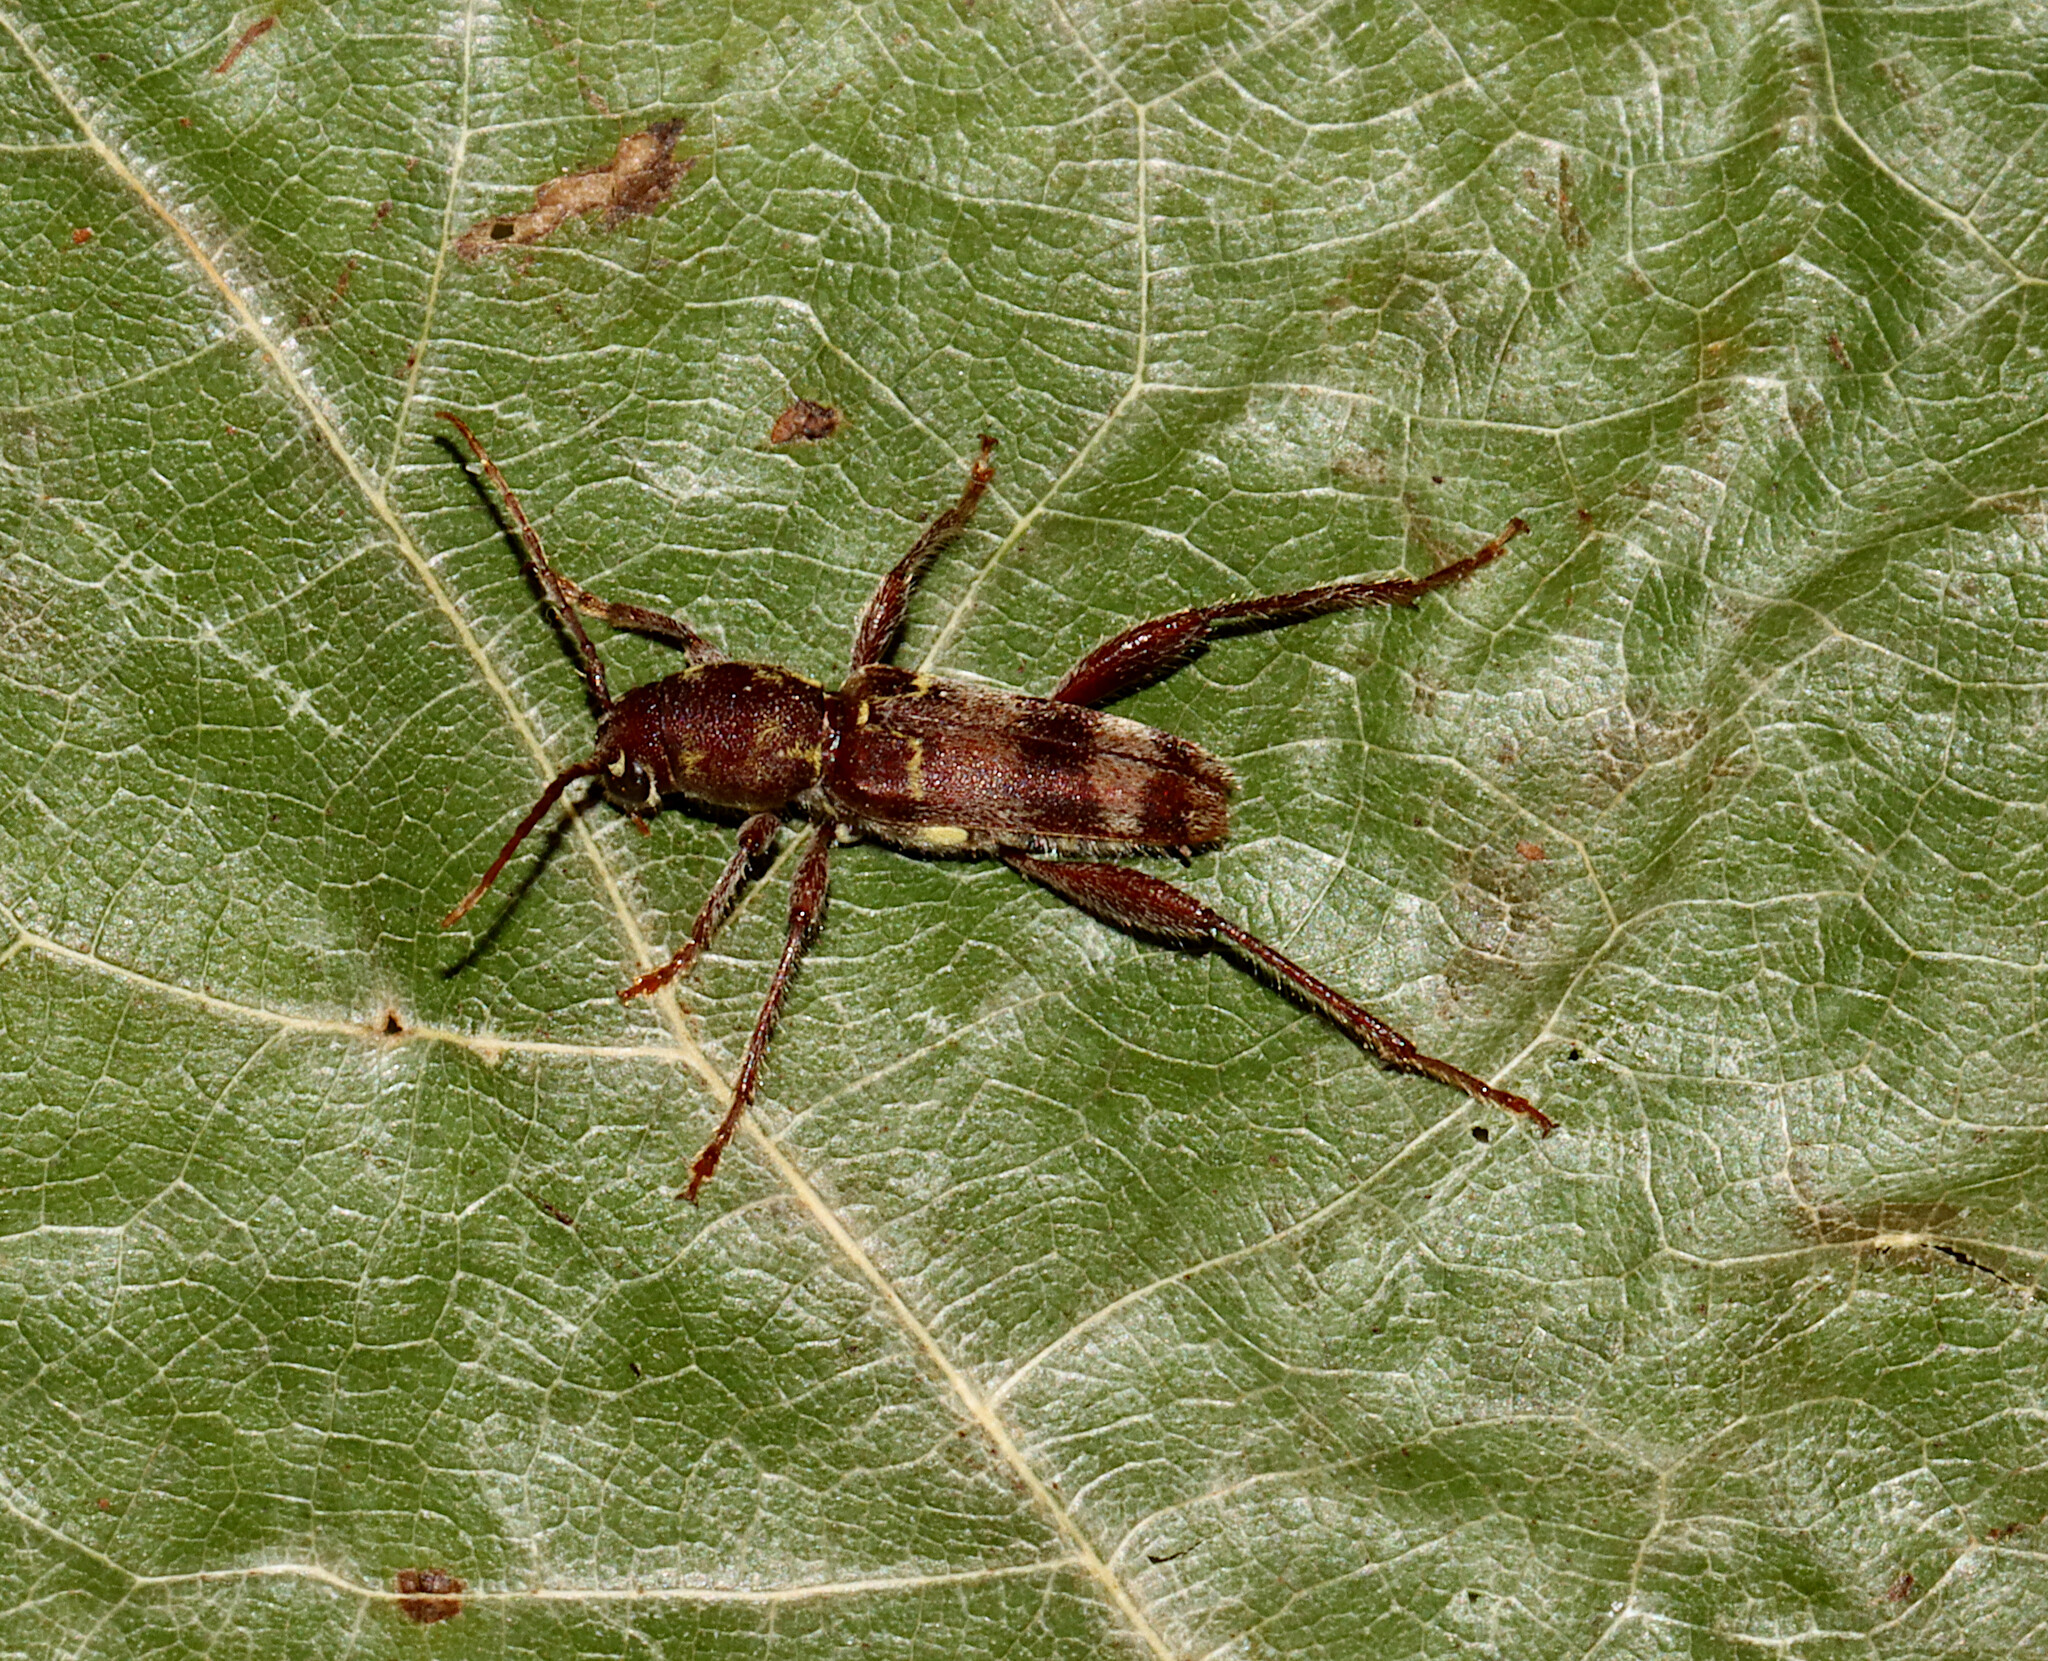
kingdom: Animalia
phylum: Arthropoda
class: Insecta
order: Coleoptera
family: Cerambycidae
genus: Xylotrechus
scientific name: Xylotrechus colonus
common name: Long-horned beetle
